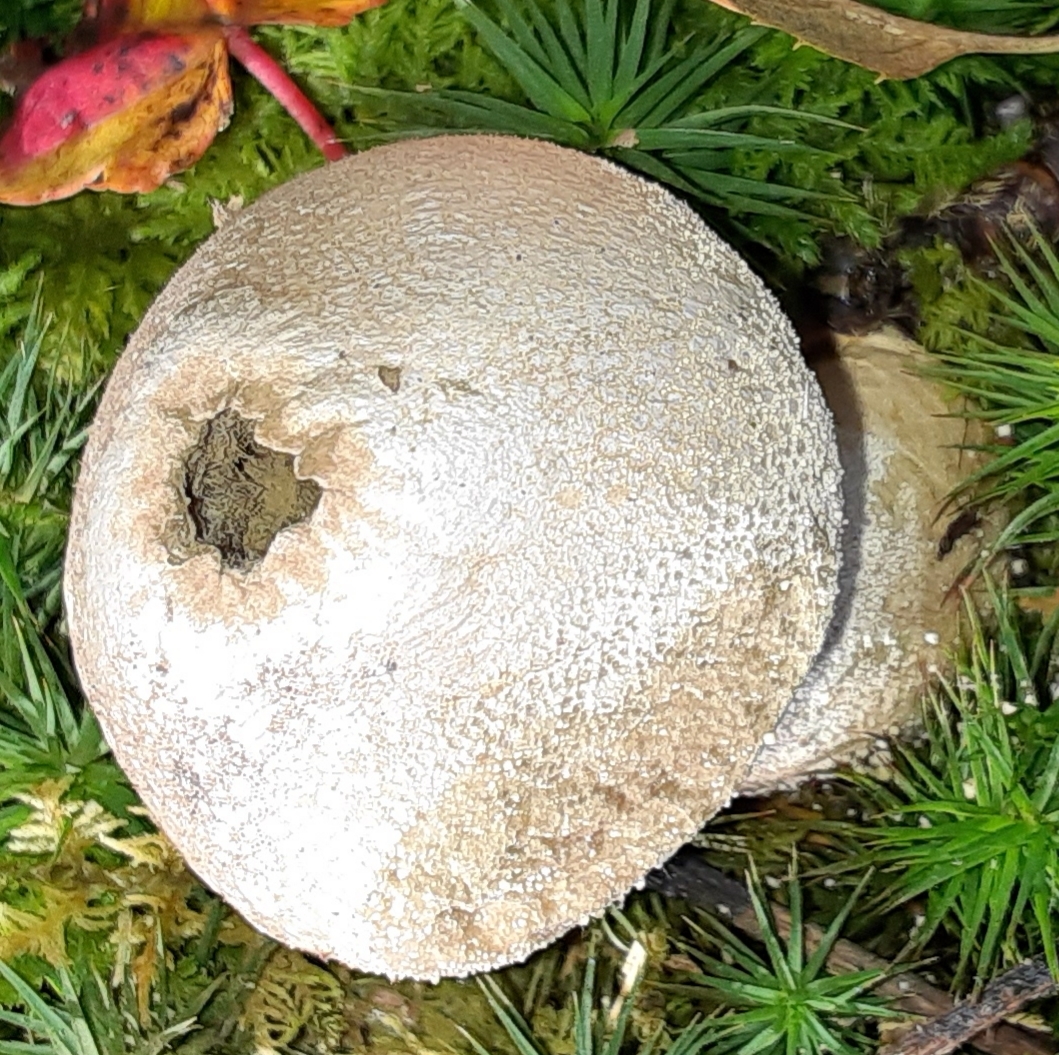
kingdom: Fungi
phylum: Basidiomycota
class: Agaricomycetes
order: Agaricales
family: Lycoperdaceae
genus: Lycoperdon
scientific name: Lycoperdon perlatum
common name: Common puffball
